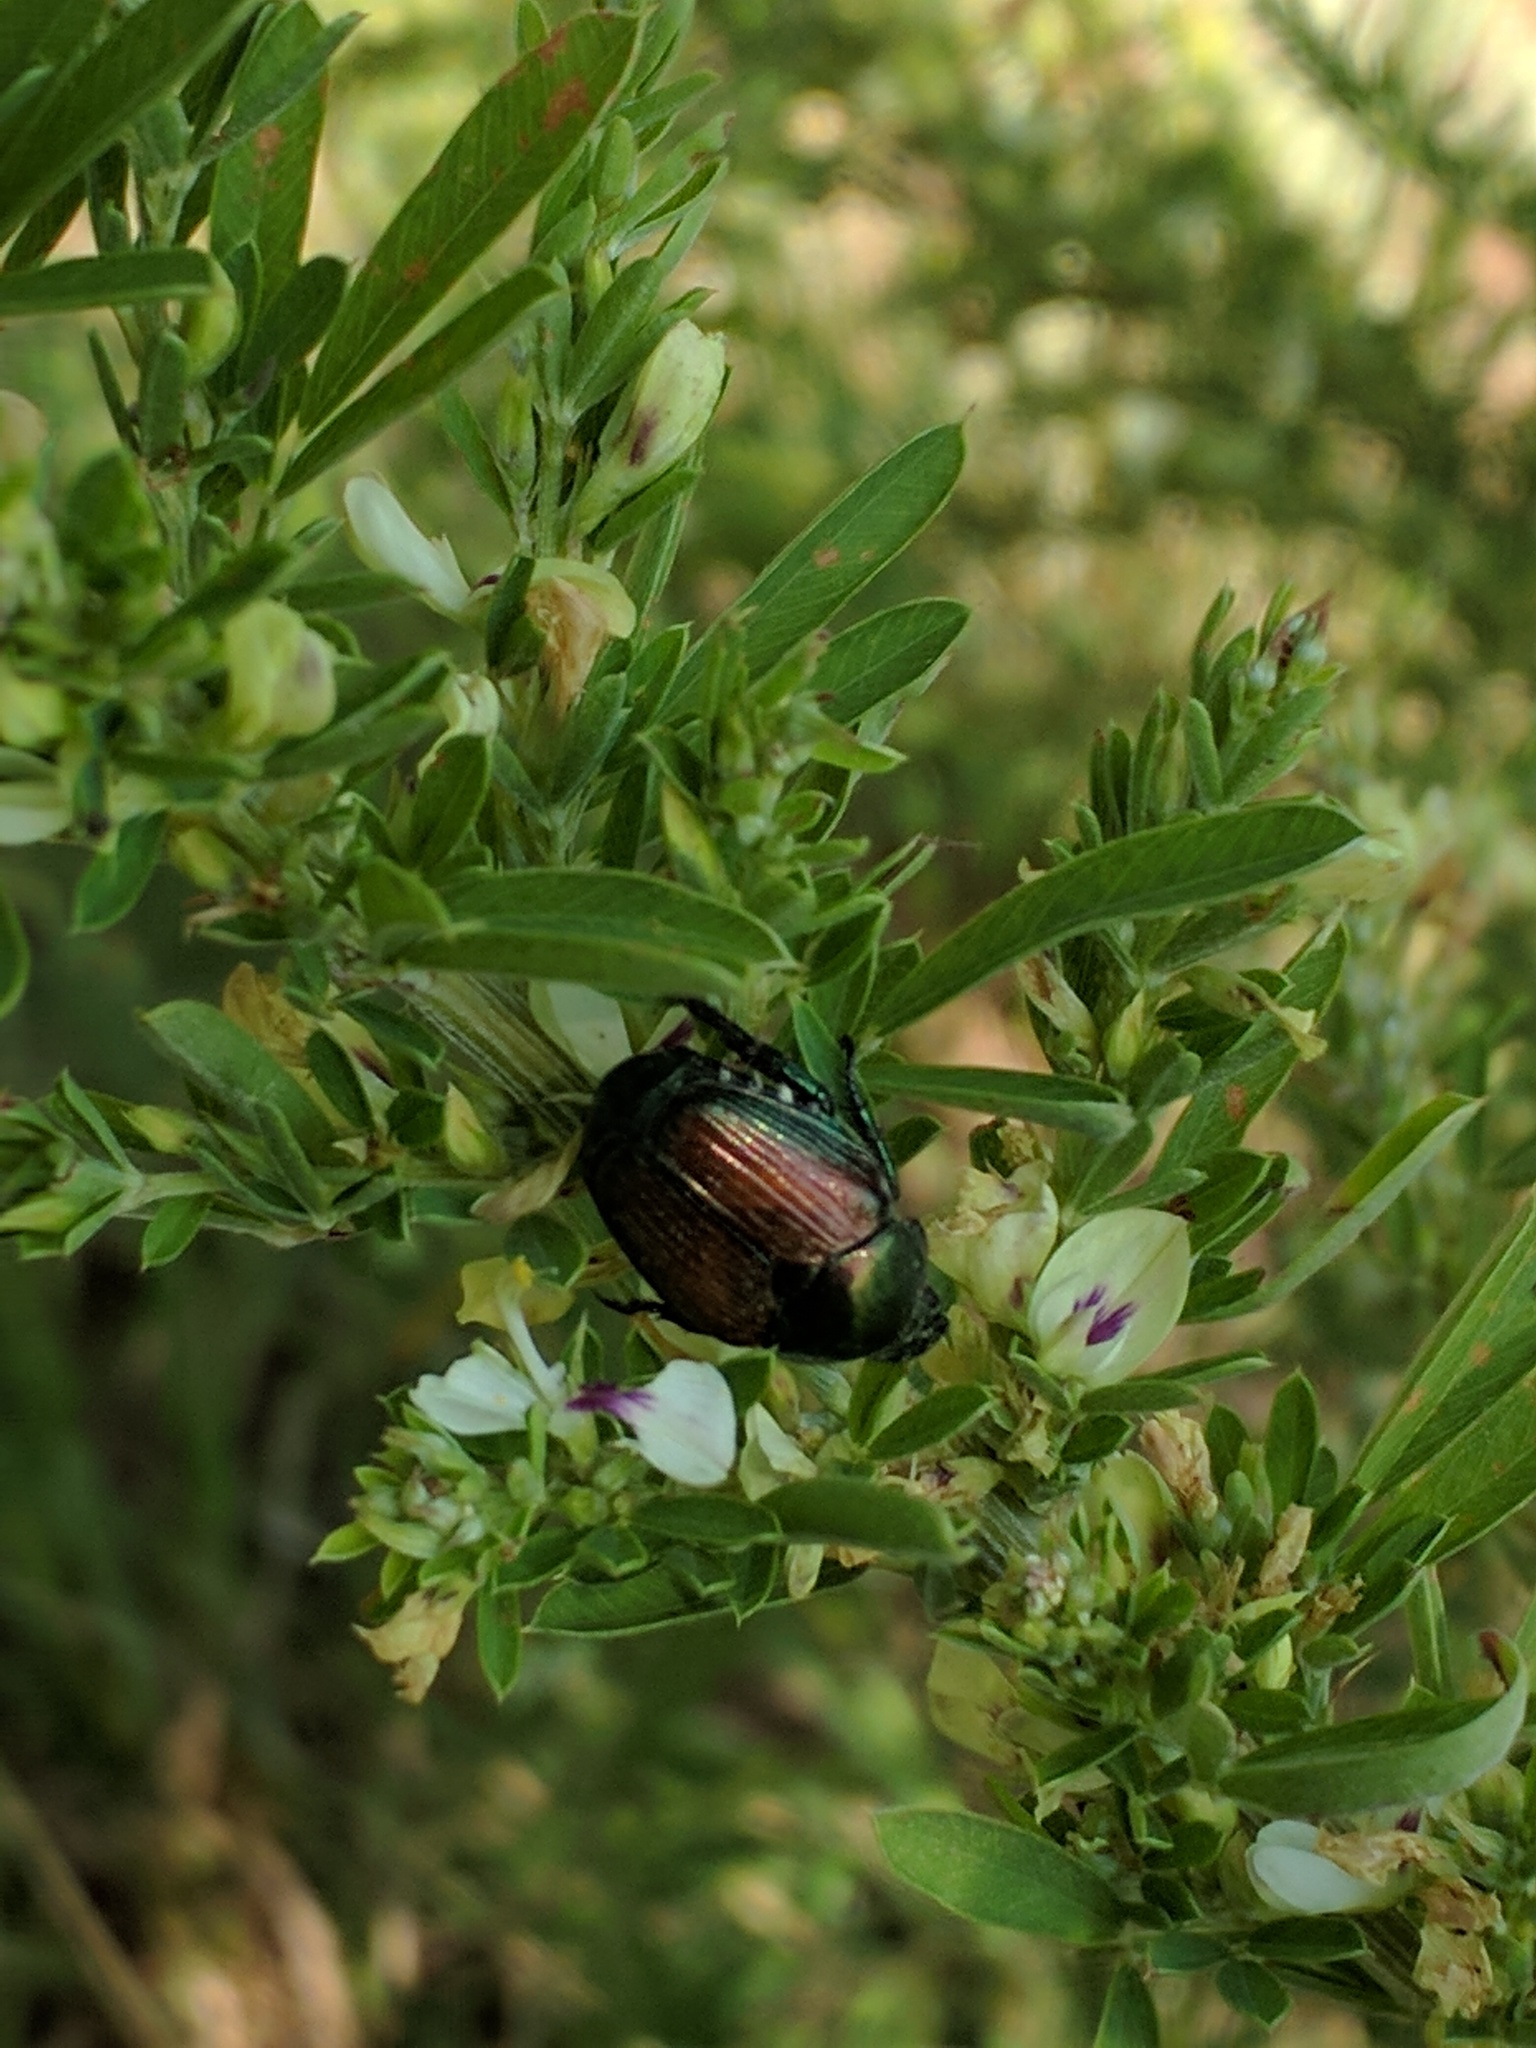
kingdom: Animalia
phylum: Arthropoda
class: Insecta
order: Coleoptera
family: Scarabaeidae
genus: Popillia
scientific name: Popillia japonica
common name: Japanese beetle
